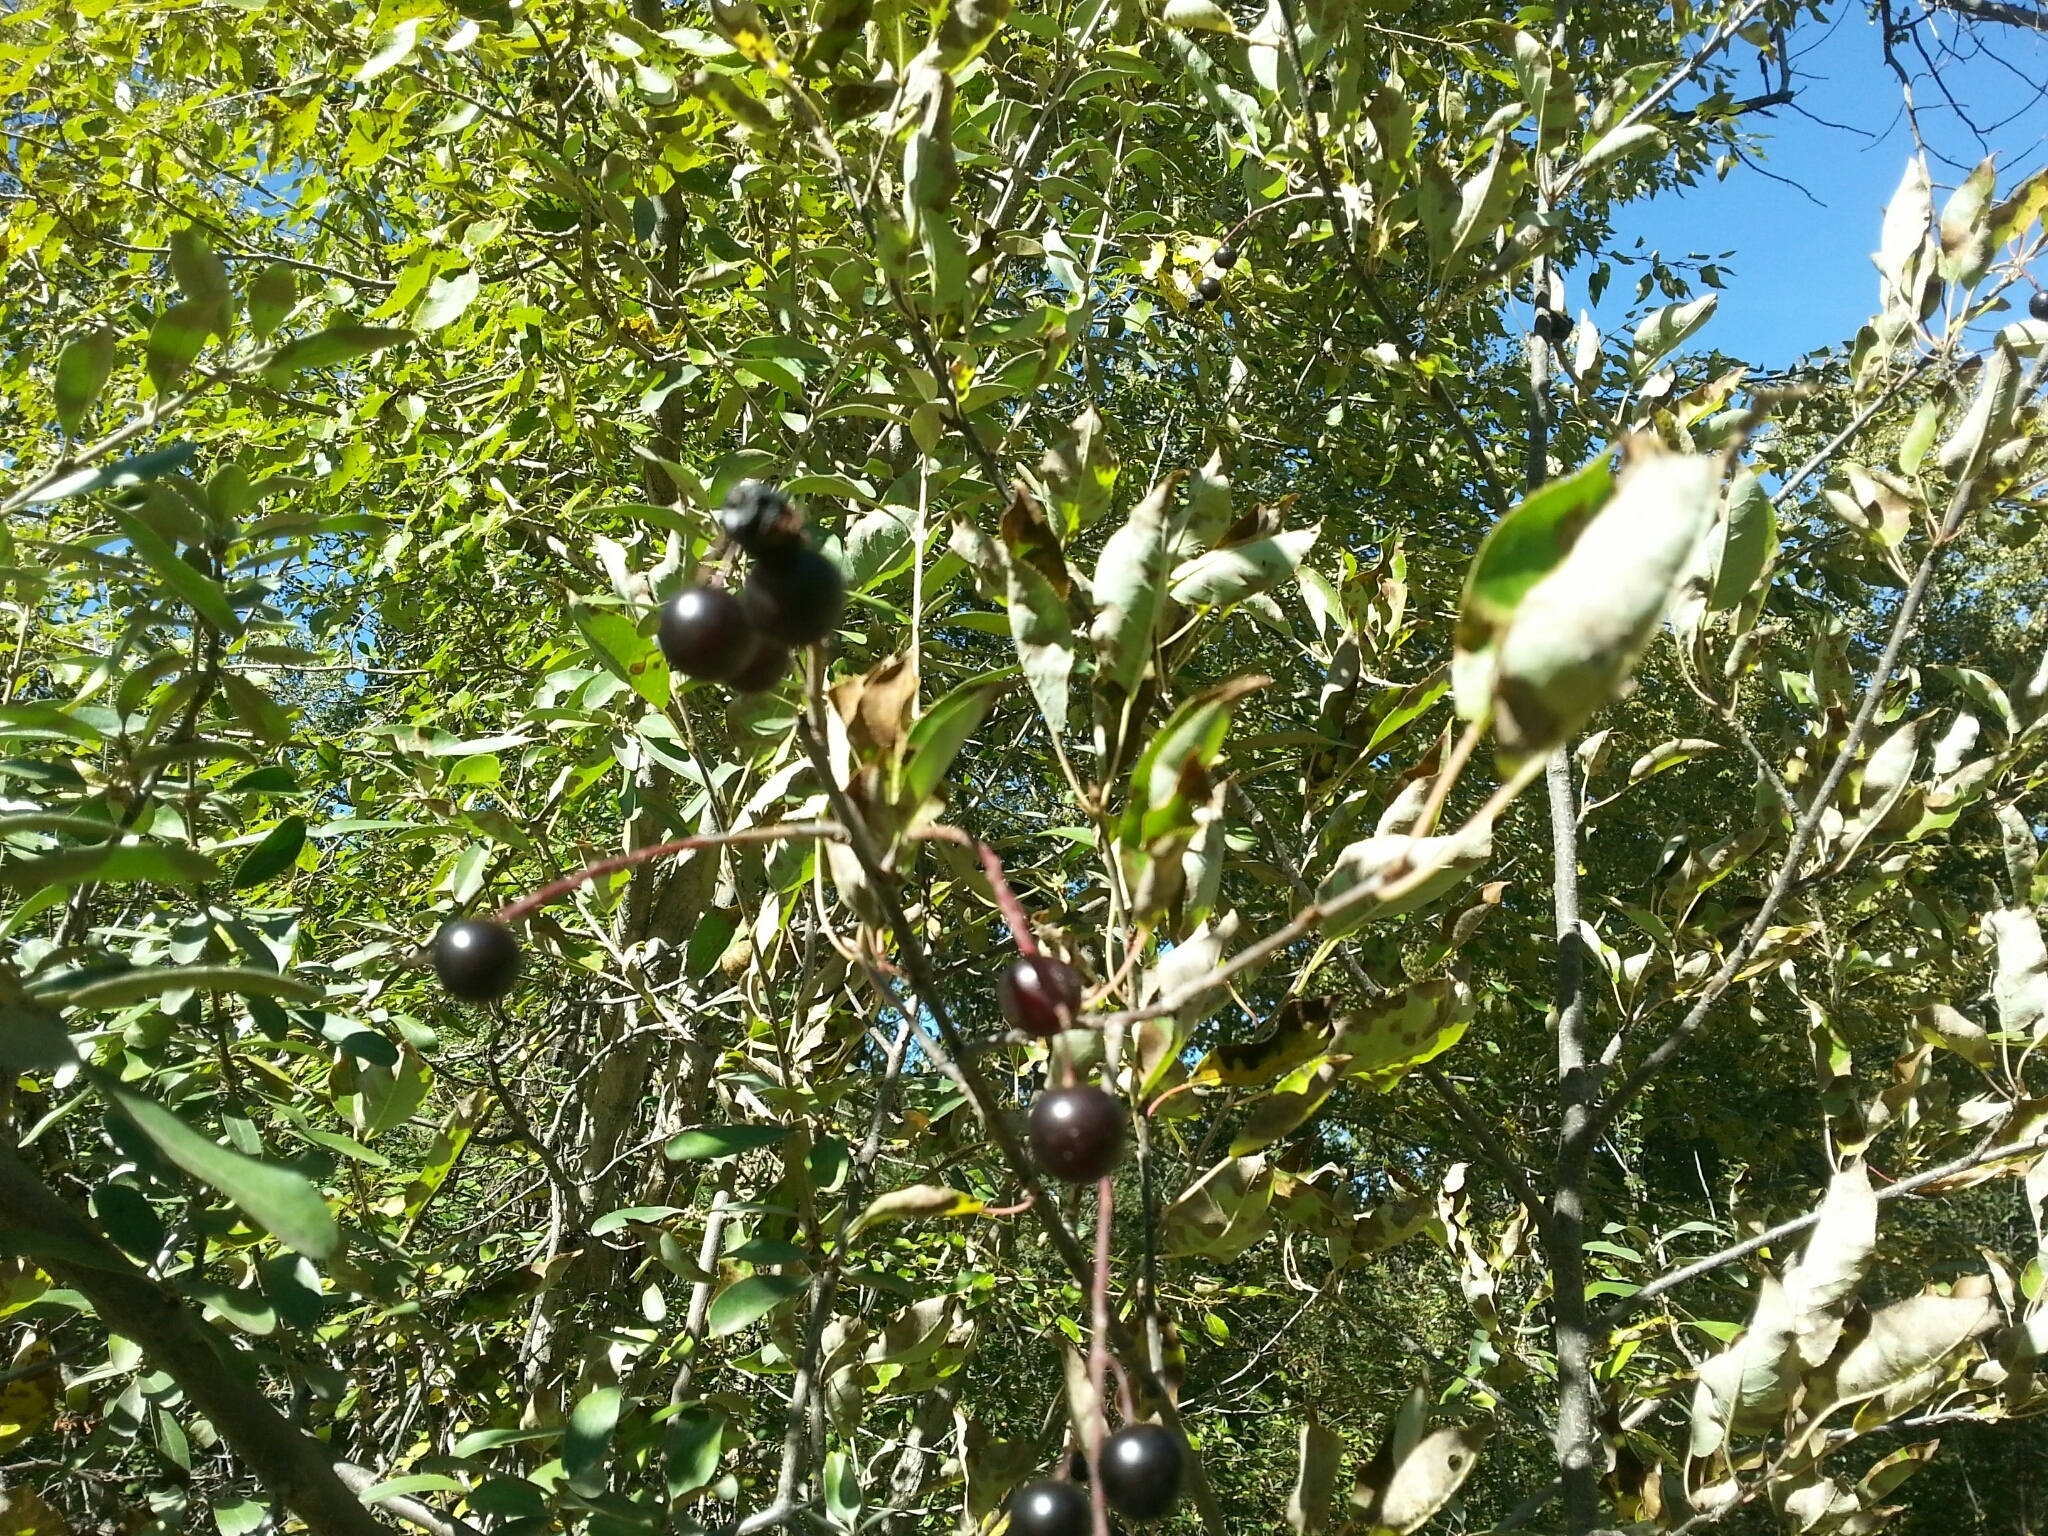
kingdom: Plantae
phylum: Tracheophyta
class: Magnoliopsida
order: Rosales
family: Rosaceae
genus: Prunus
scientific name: Prunus virginiana
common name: Chokecherry
